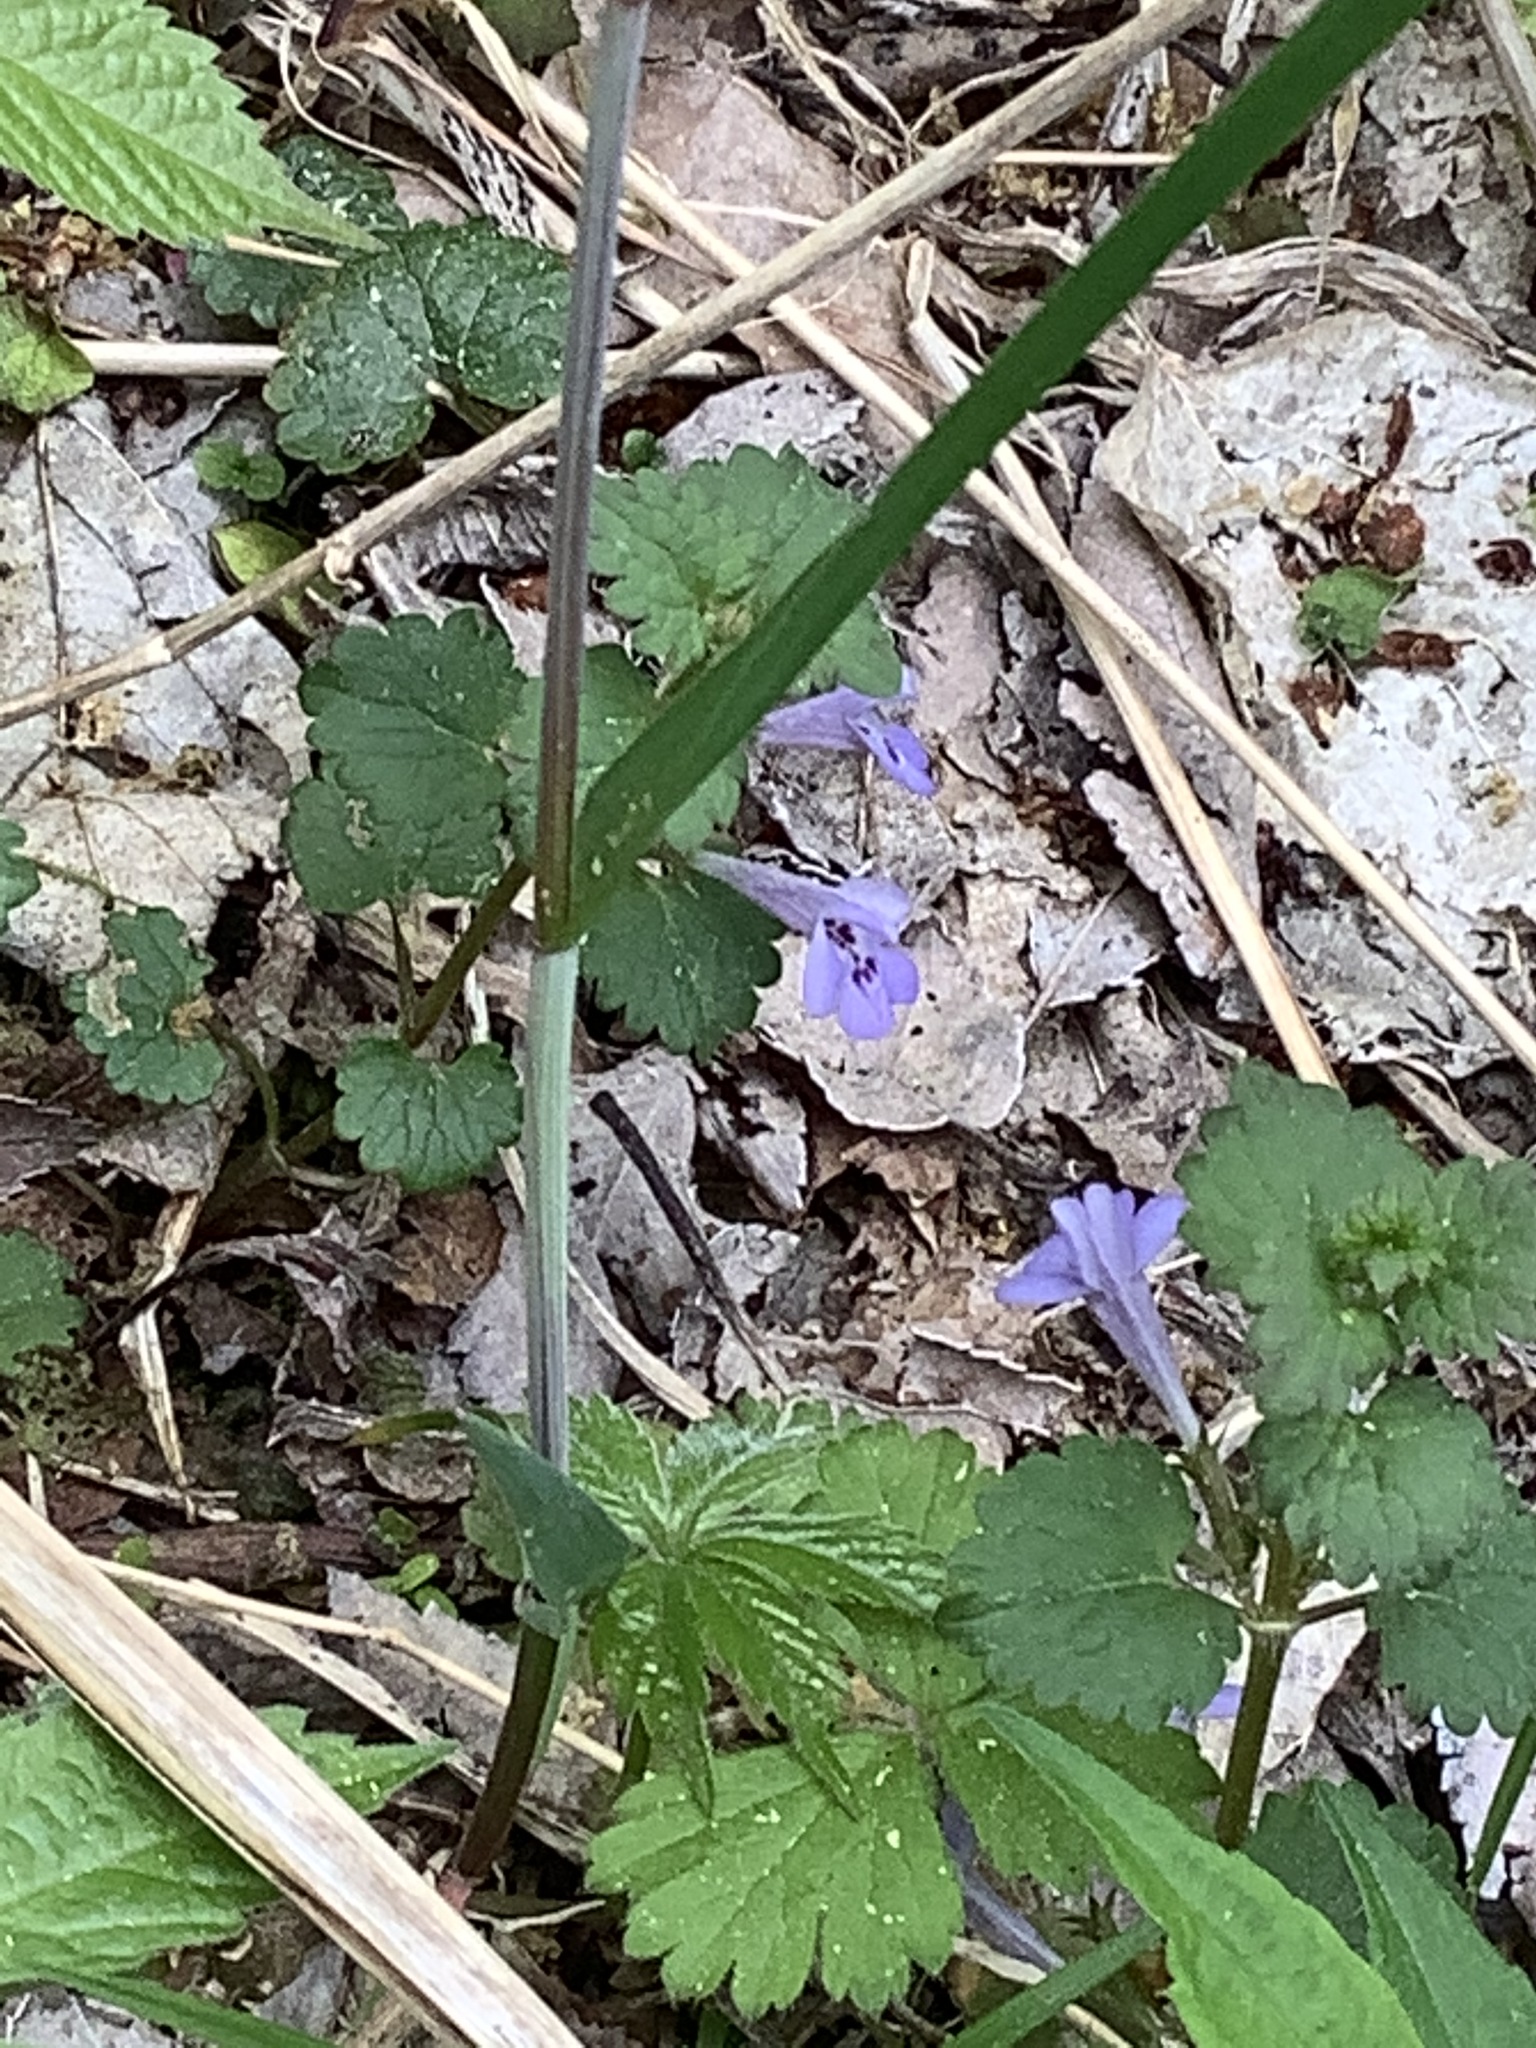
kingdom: Plantae
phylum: Tracheophyta
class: Magnoliopsida
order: Lamiales
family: Lamiaceae
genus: Glechoma
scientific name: Glechoma hederacea
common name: Ground ivy
